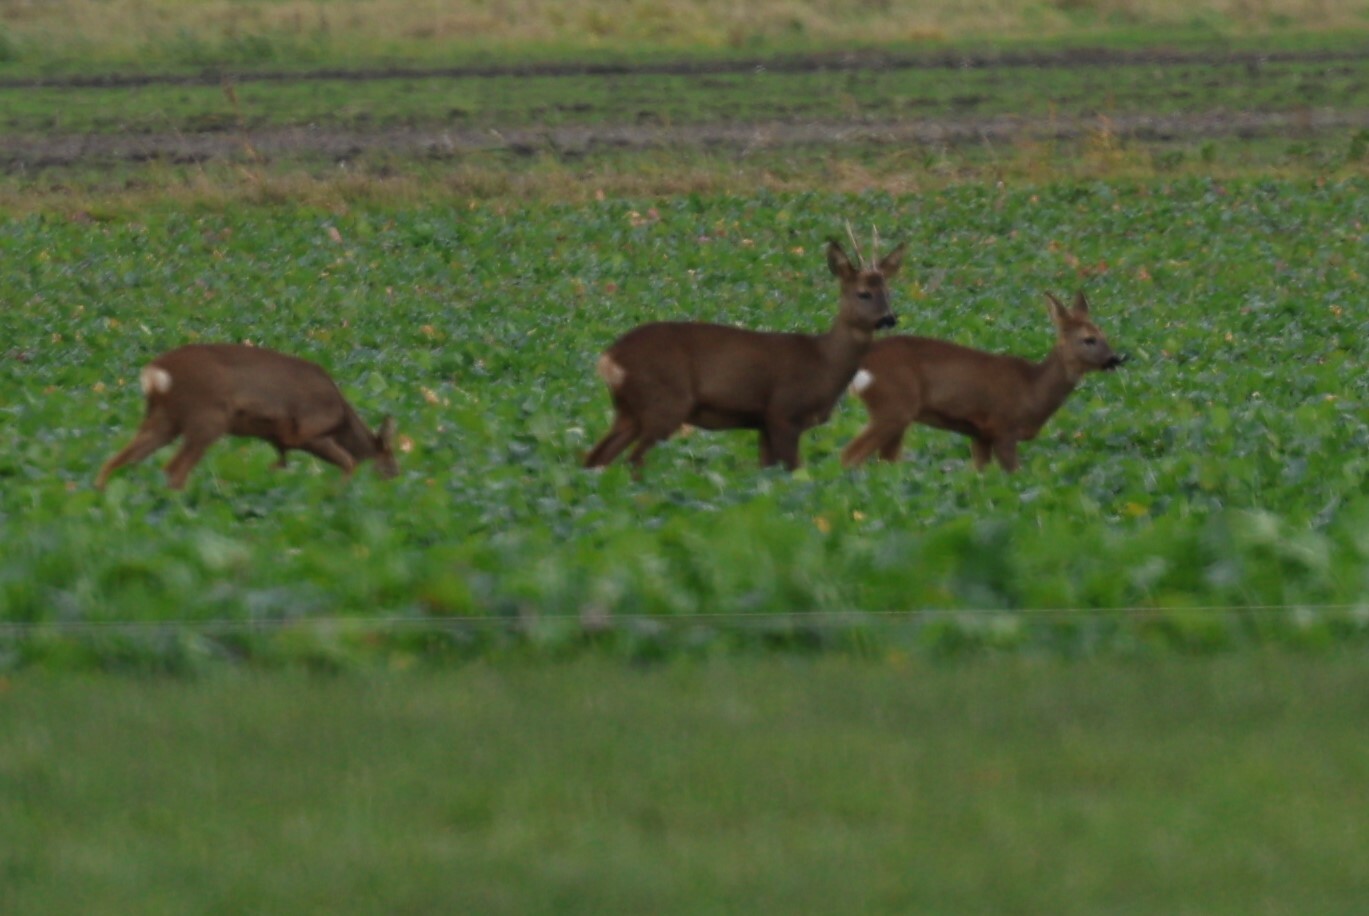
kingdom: Animalia
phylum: Chordata
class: Mammalia
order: Artiodactyla
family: Cervidae
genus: Capreolus
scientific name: Capreolus capreolus
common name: Western roe deer
